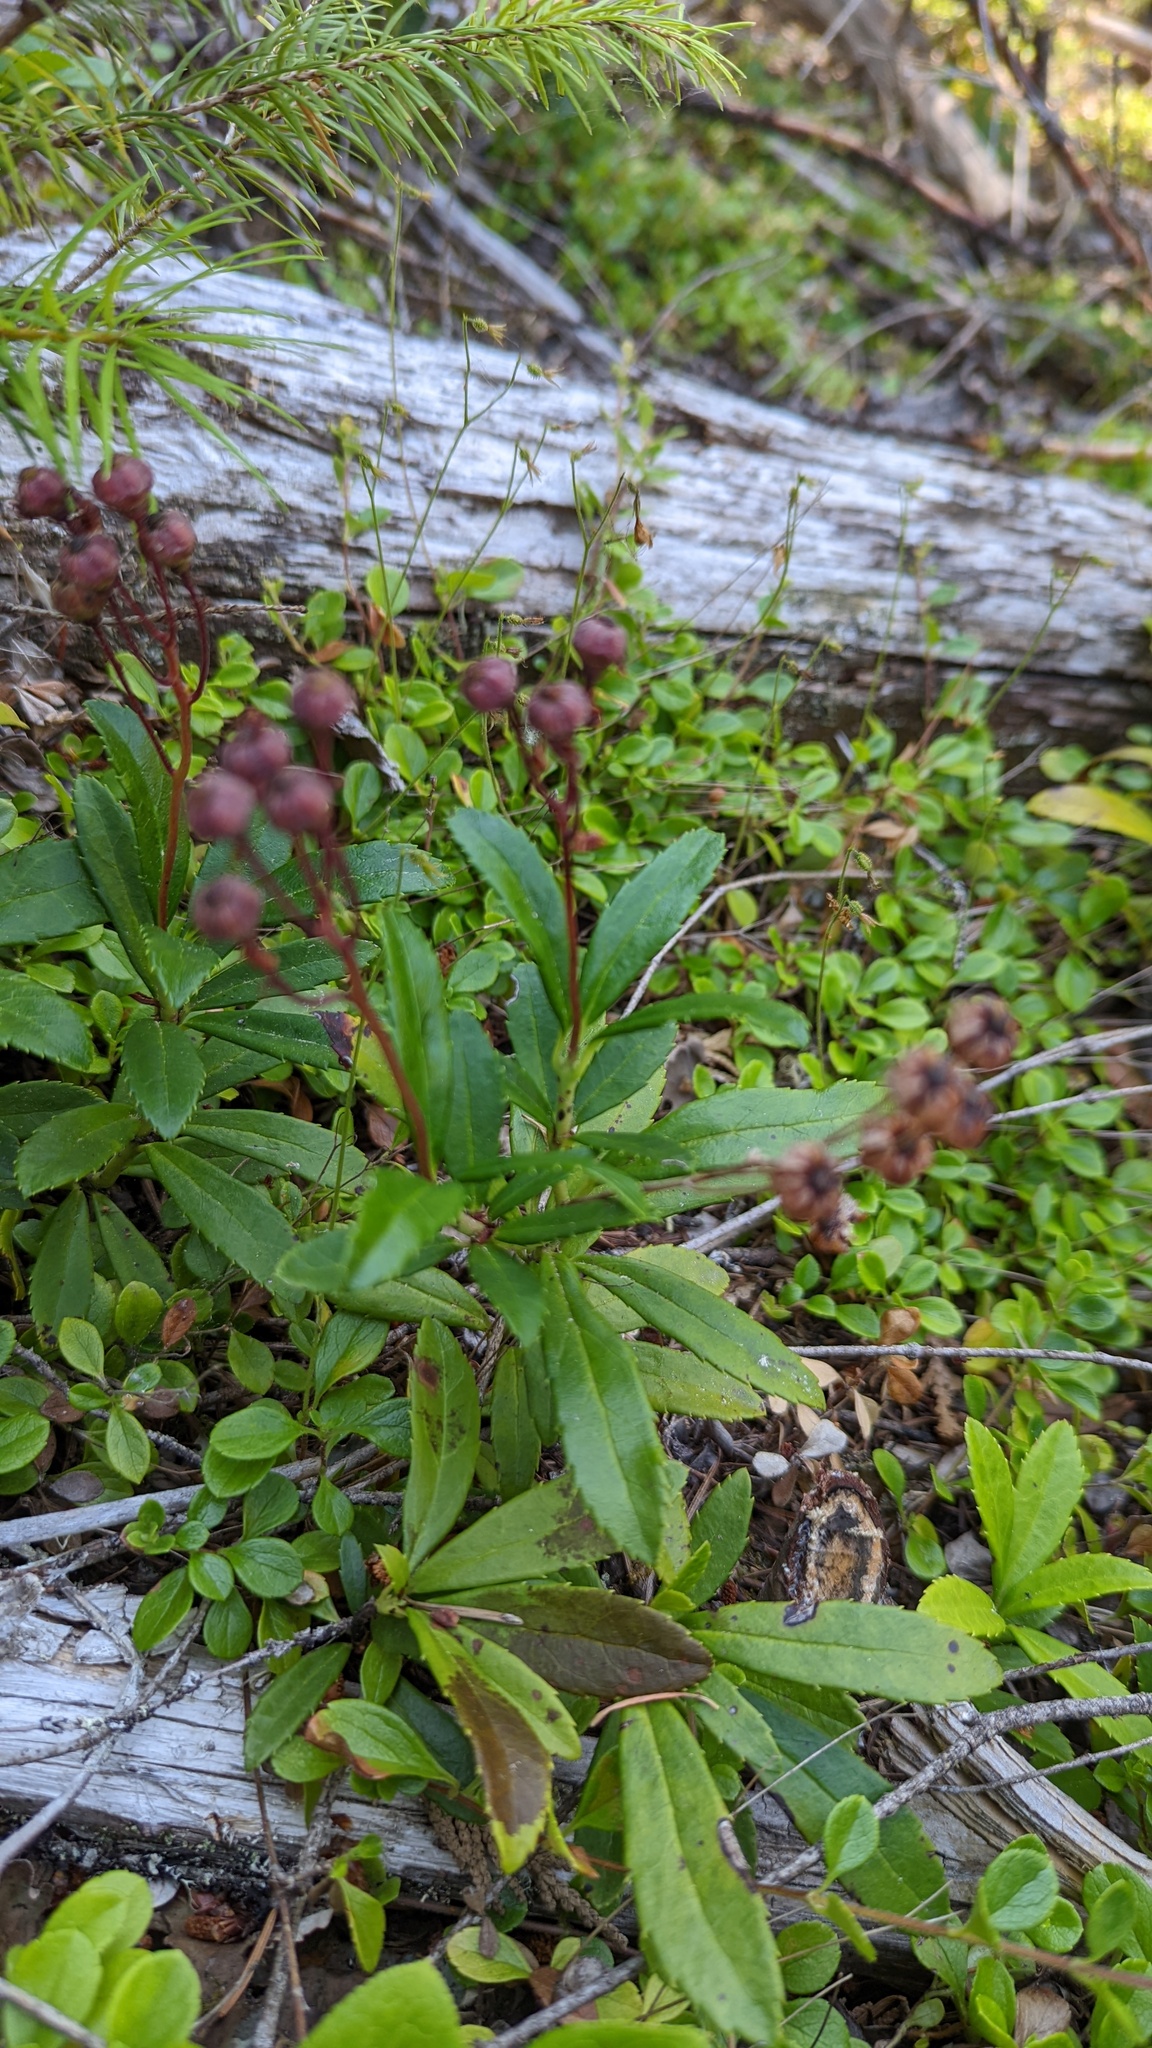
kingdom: Plantae
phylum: Tracheophyta
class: Magnoliopsida
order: Ericales
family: Ericaceae
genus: Chimaphila
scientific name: Chimaphila umbellata
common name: Pipsissewa
